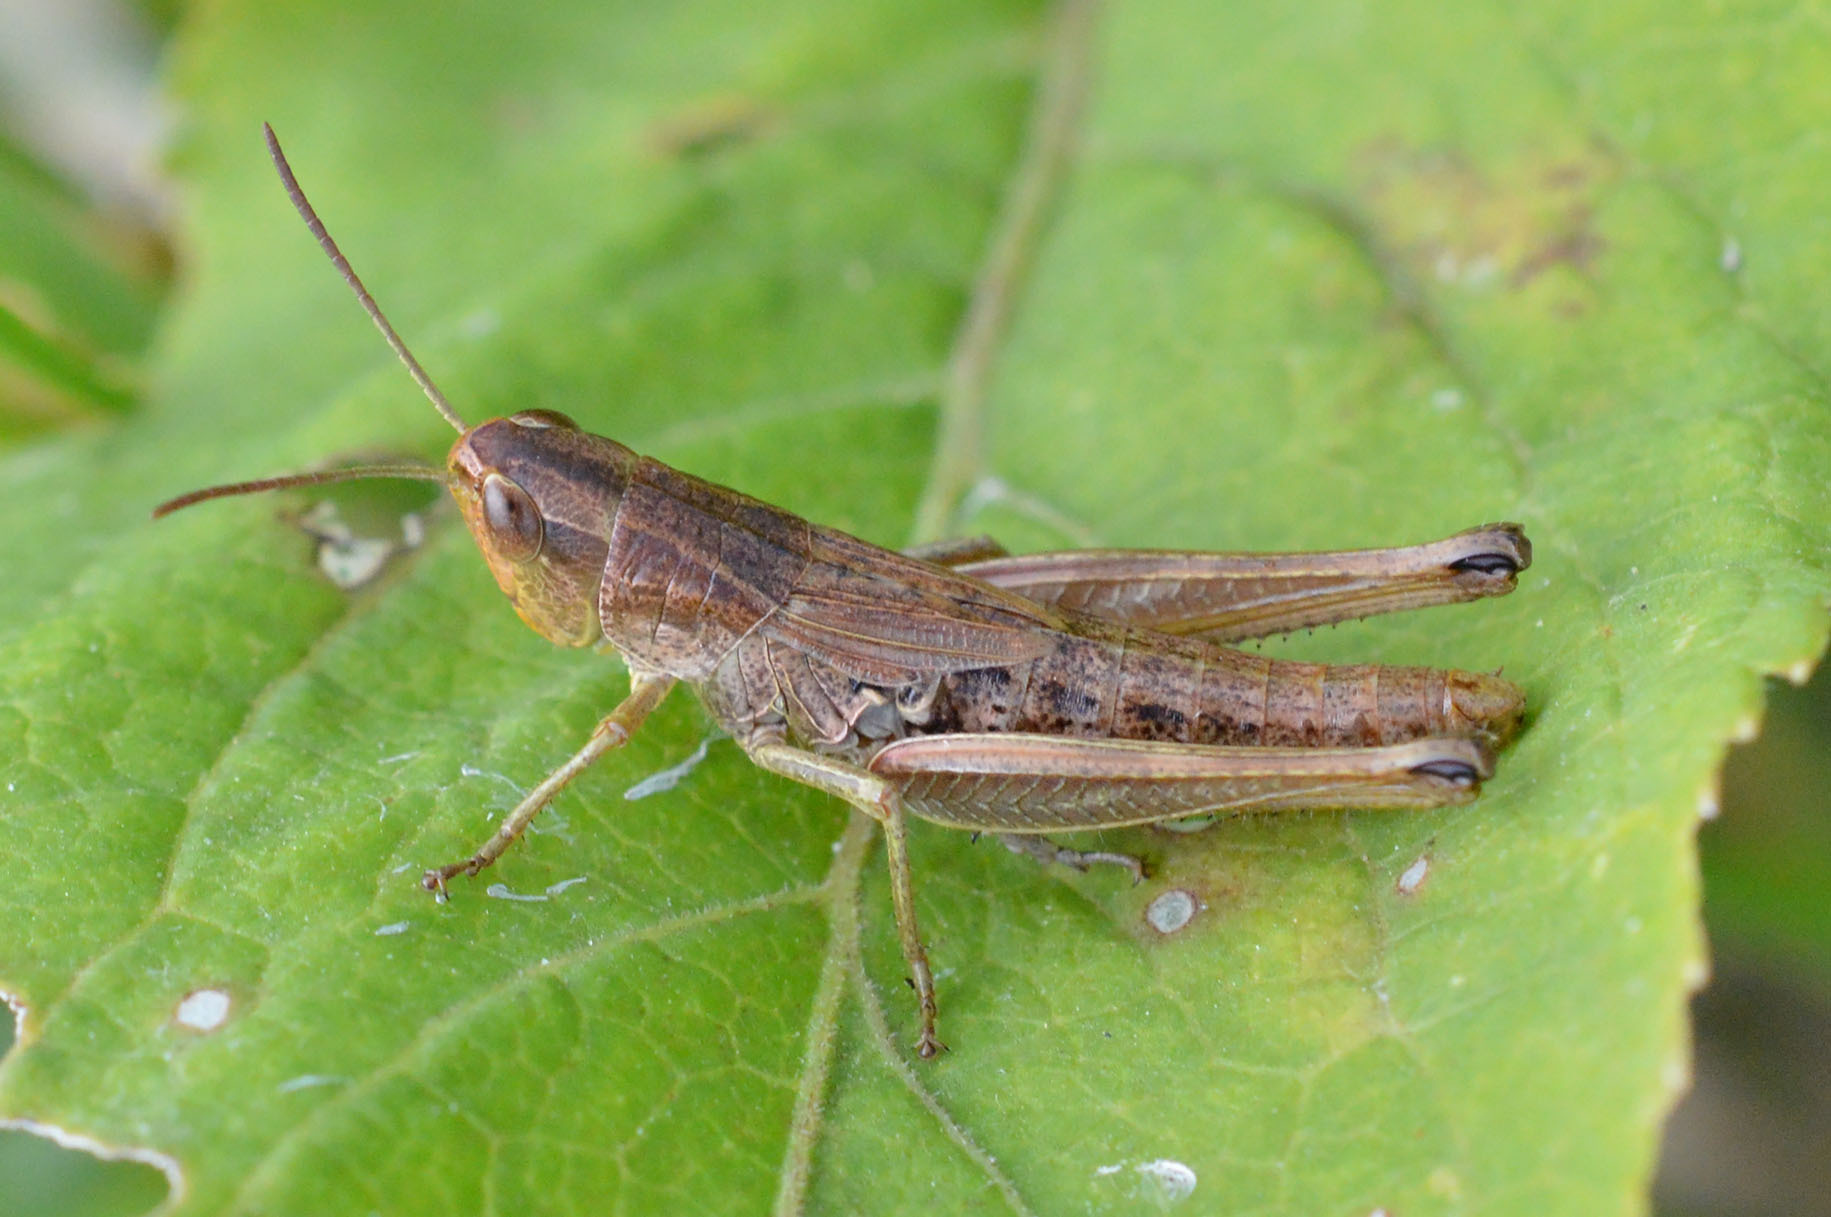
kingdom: Animalia
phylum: Arthropoda
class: Insecta
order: Orthoptera
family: Acrididae
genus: Pseudochorthippus
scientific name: Pseudochorthippus parallelus
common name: Meadow grasshopper
